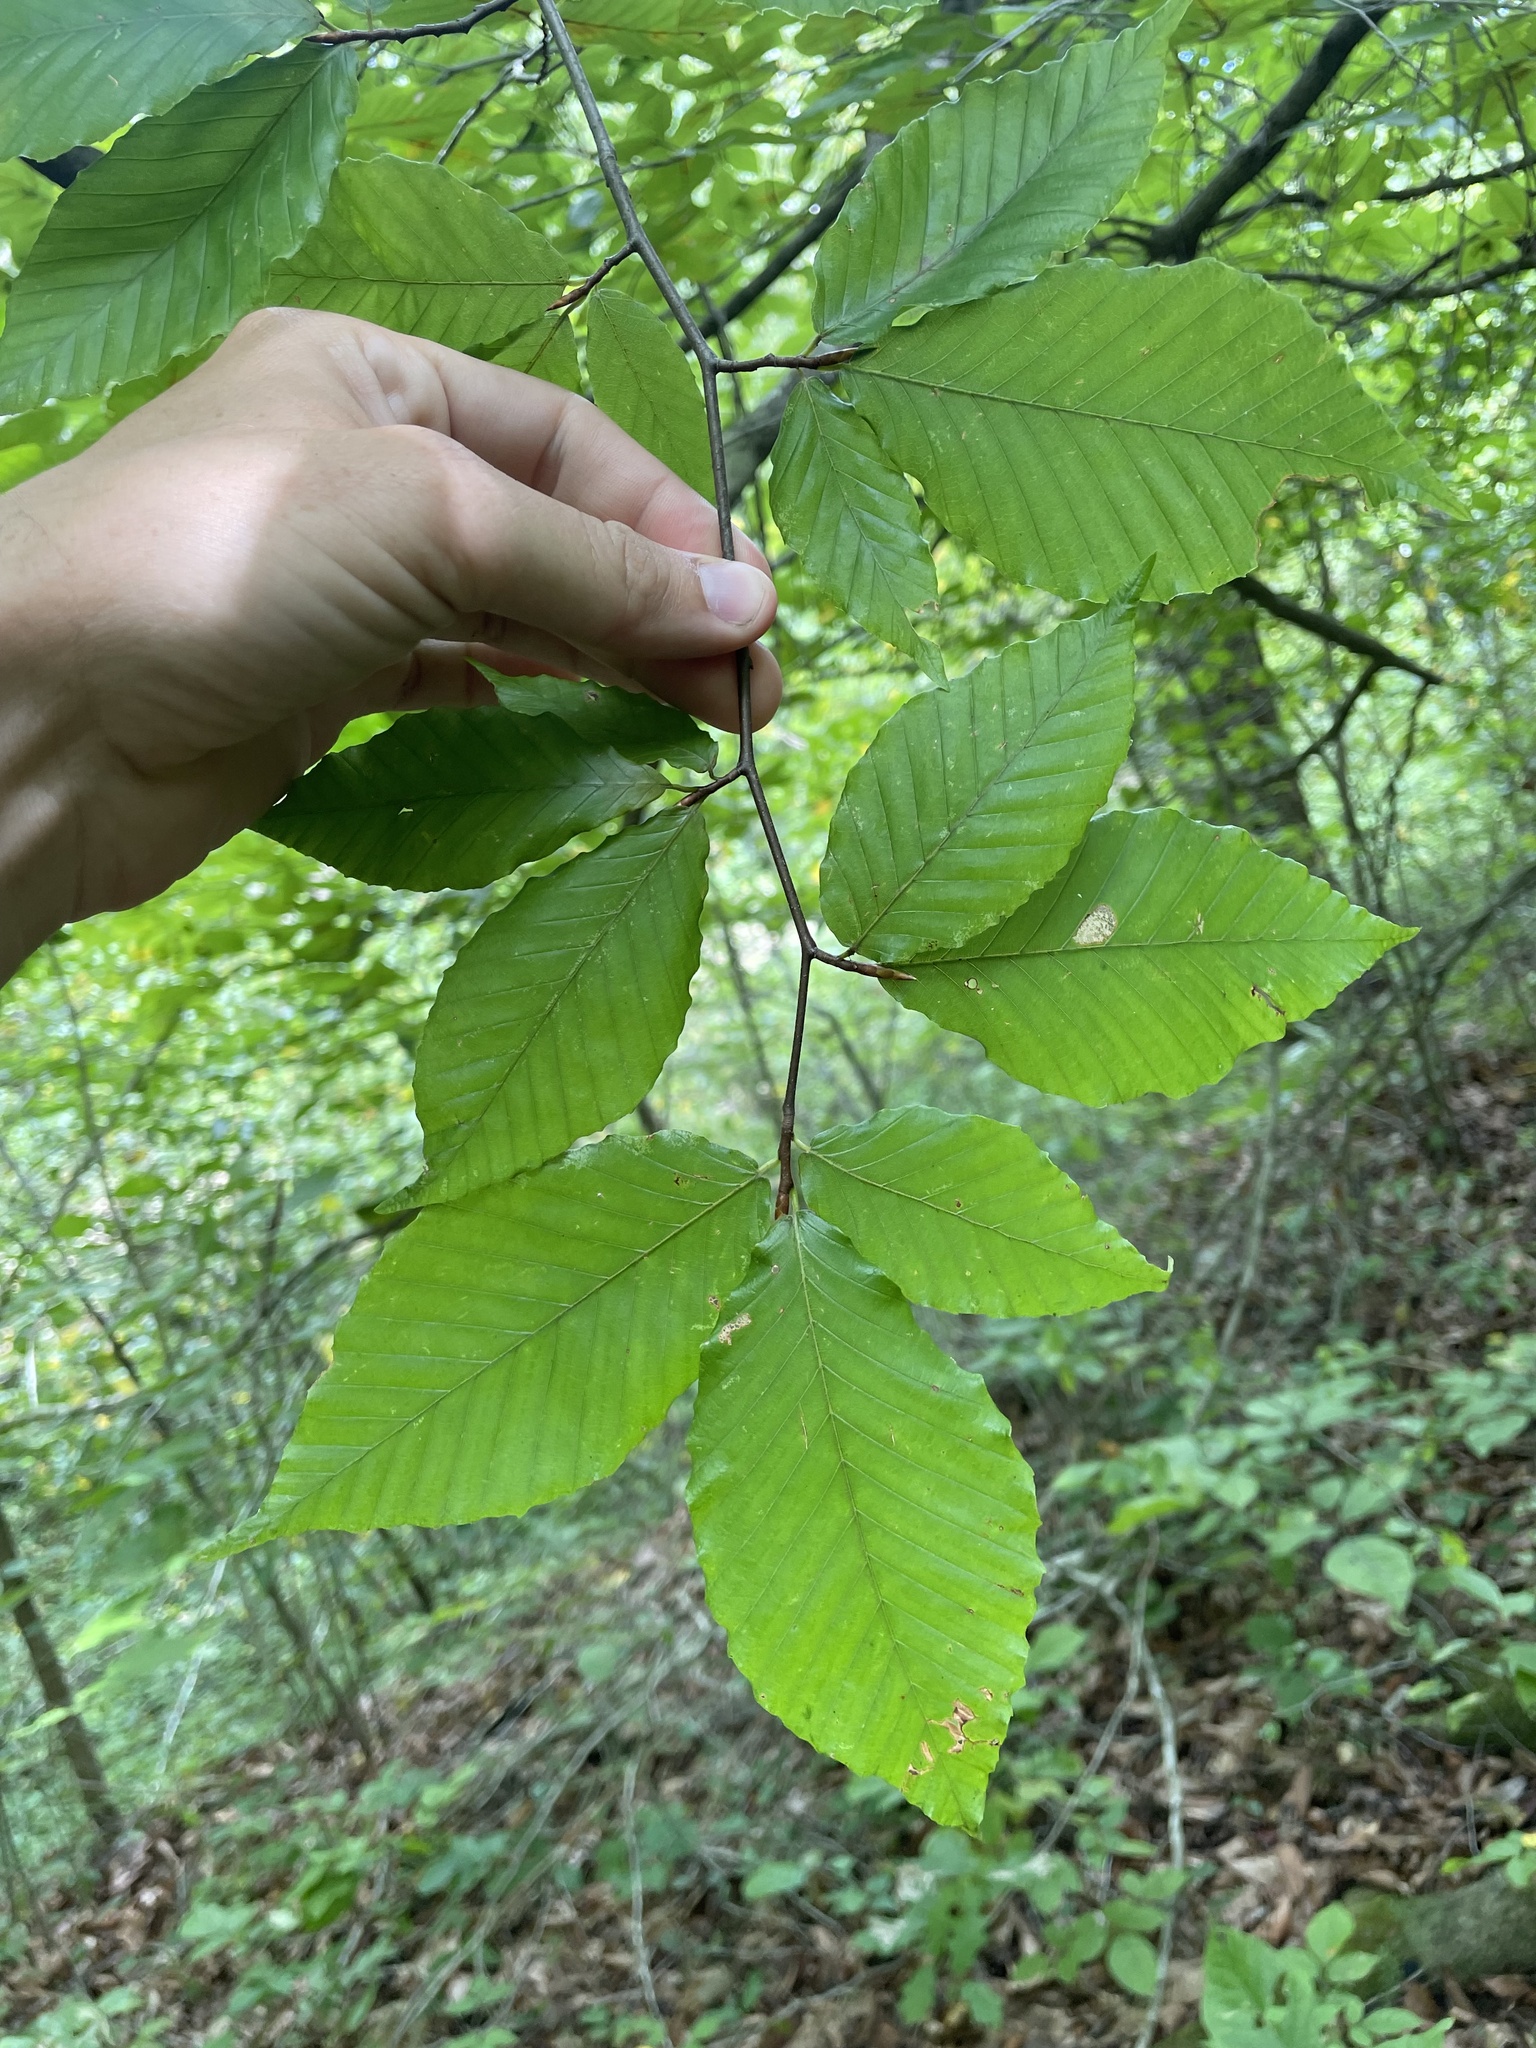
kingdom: Plantae
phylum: Tracheophyta
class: Magnoliopsida
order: Fagales
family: Fagaceae
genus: Fagus
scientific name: Fagus grandifolia
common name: American beech
